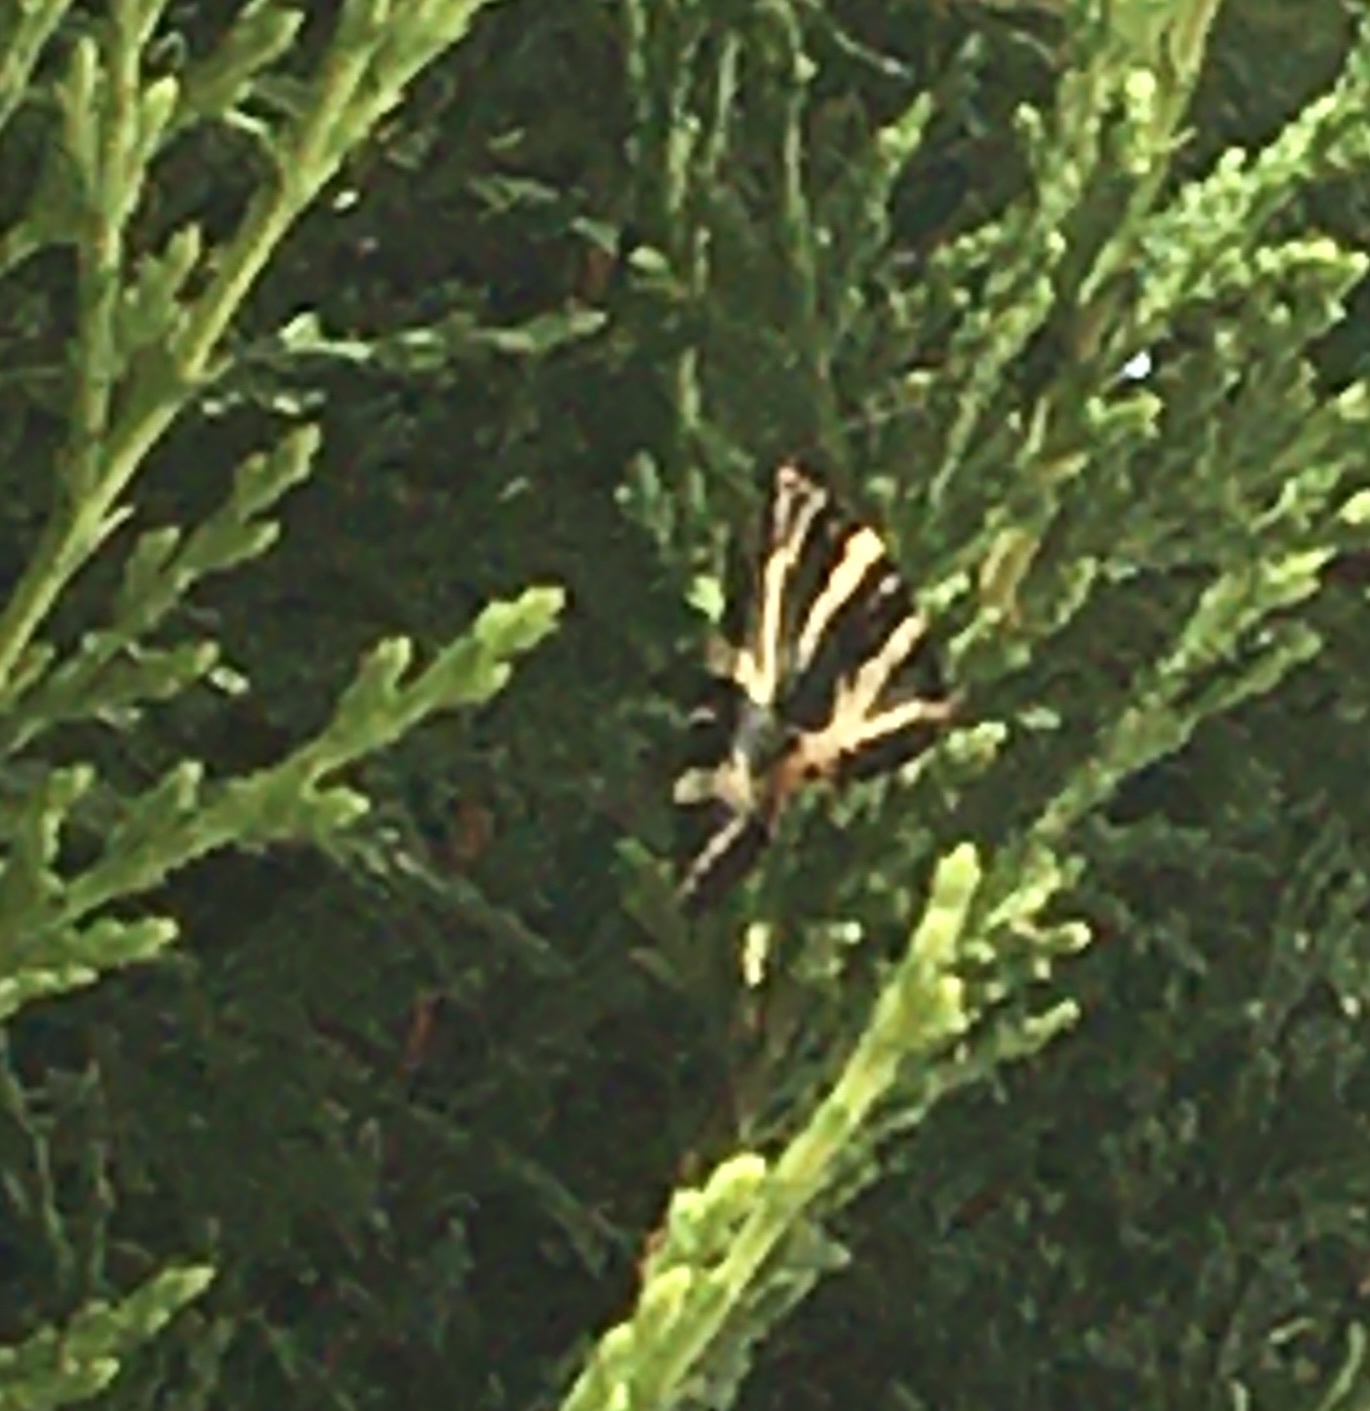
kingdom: Animalia
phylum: Arthropoda
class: Insecta
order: Lepidoptera
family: Erebidae
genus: Euplagia
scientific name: Euplagia quadripunctaria
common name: Jersey tiger
